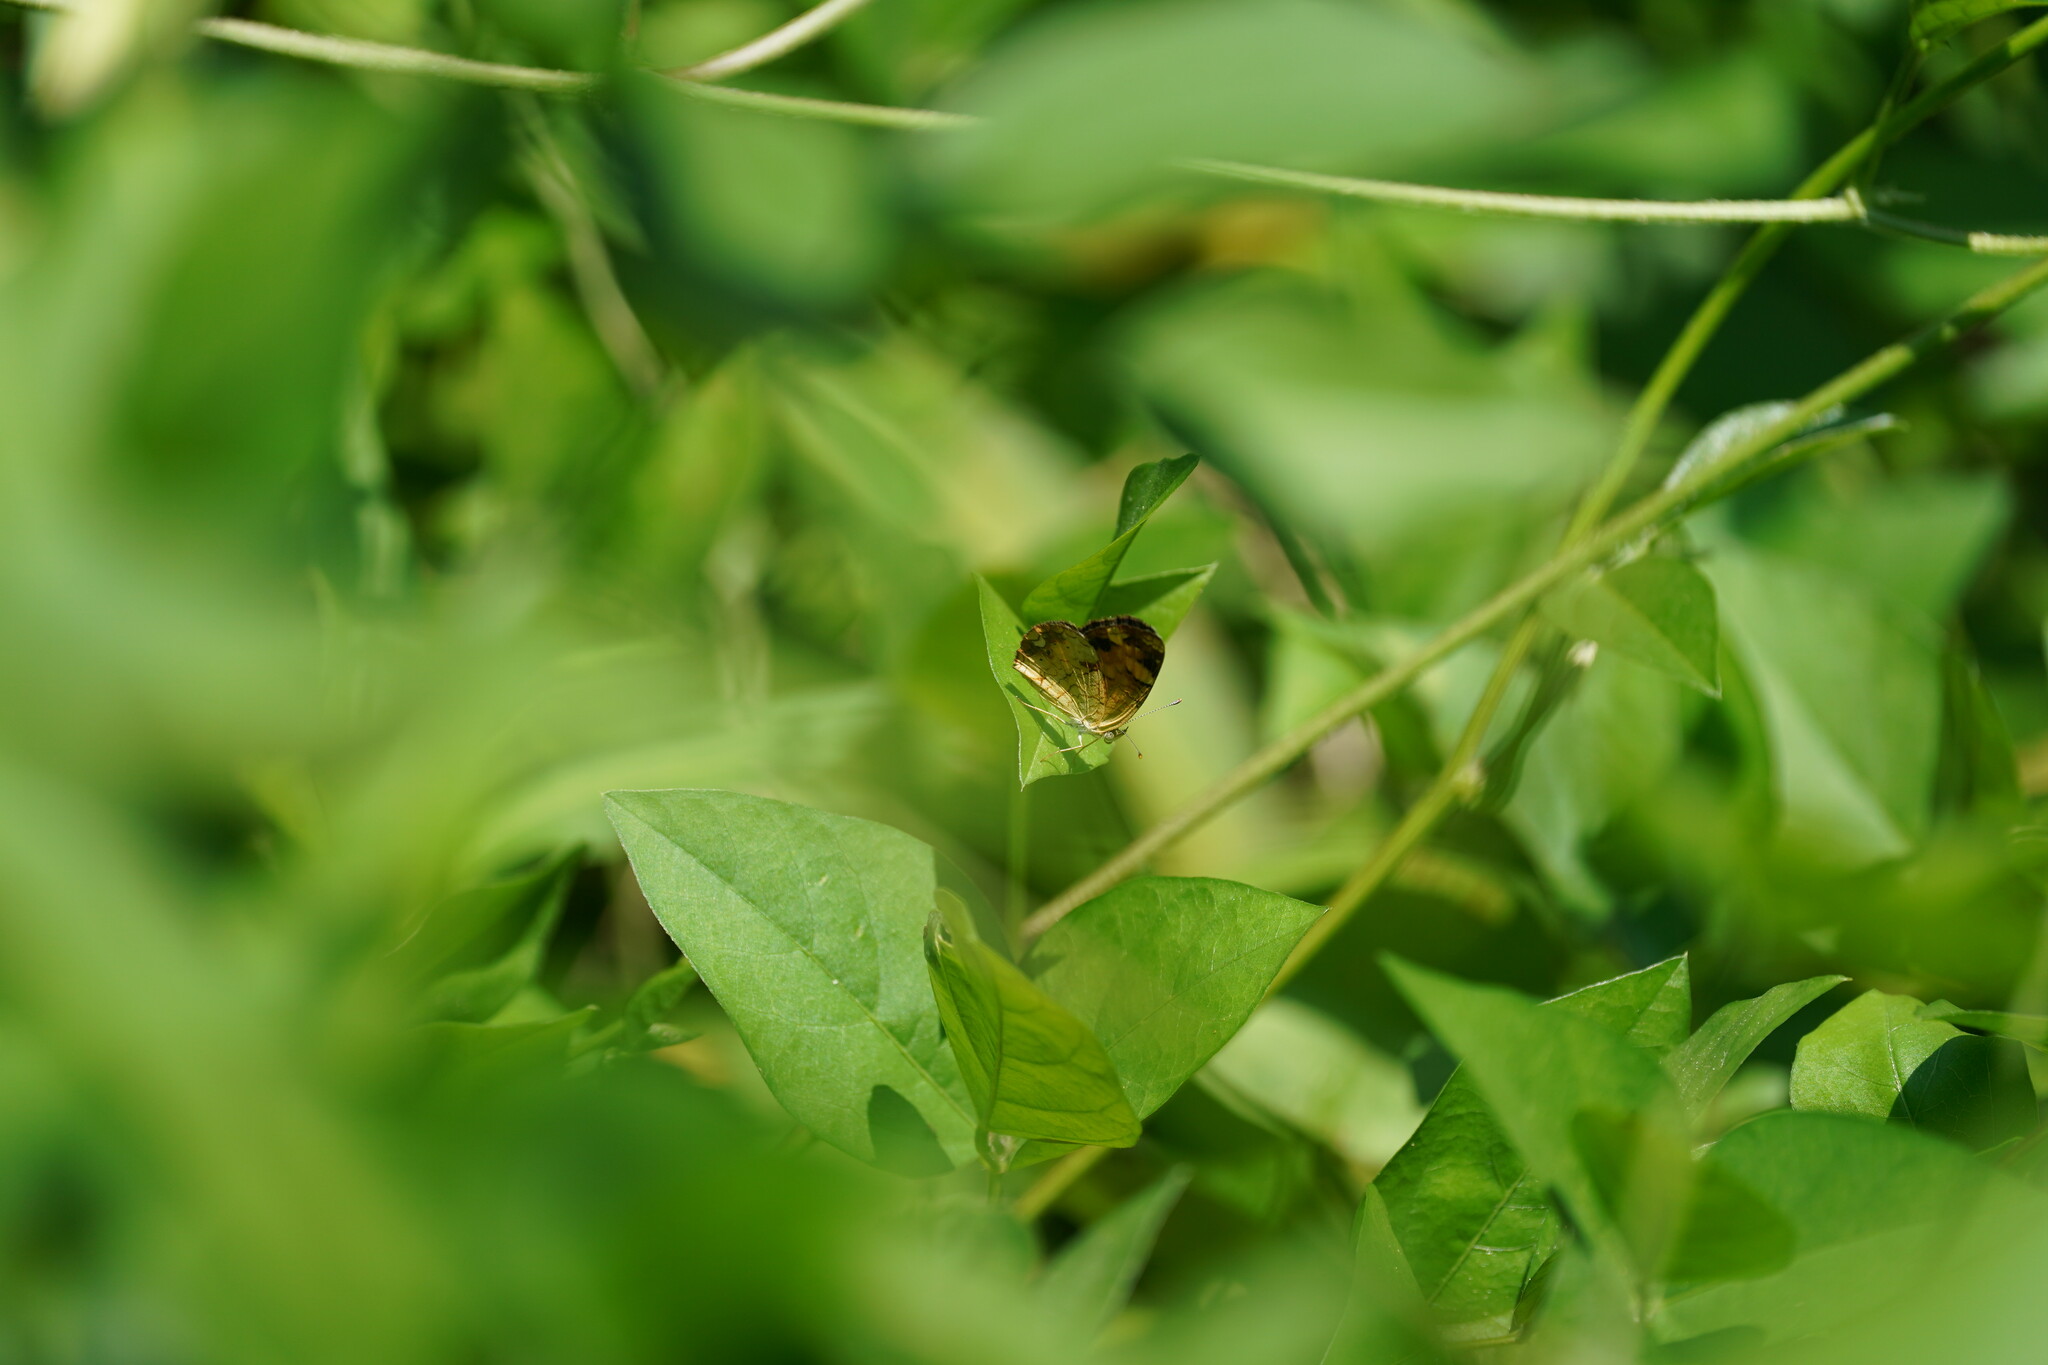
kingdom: Animalia
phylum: Arthropoda
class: Insecta
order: Lepidoptera
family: Nymphalidae
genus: Phyciodes
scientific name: Phyciodes tharos
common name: Pearl crescent
